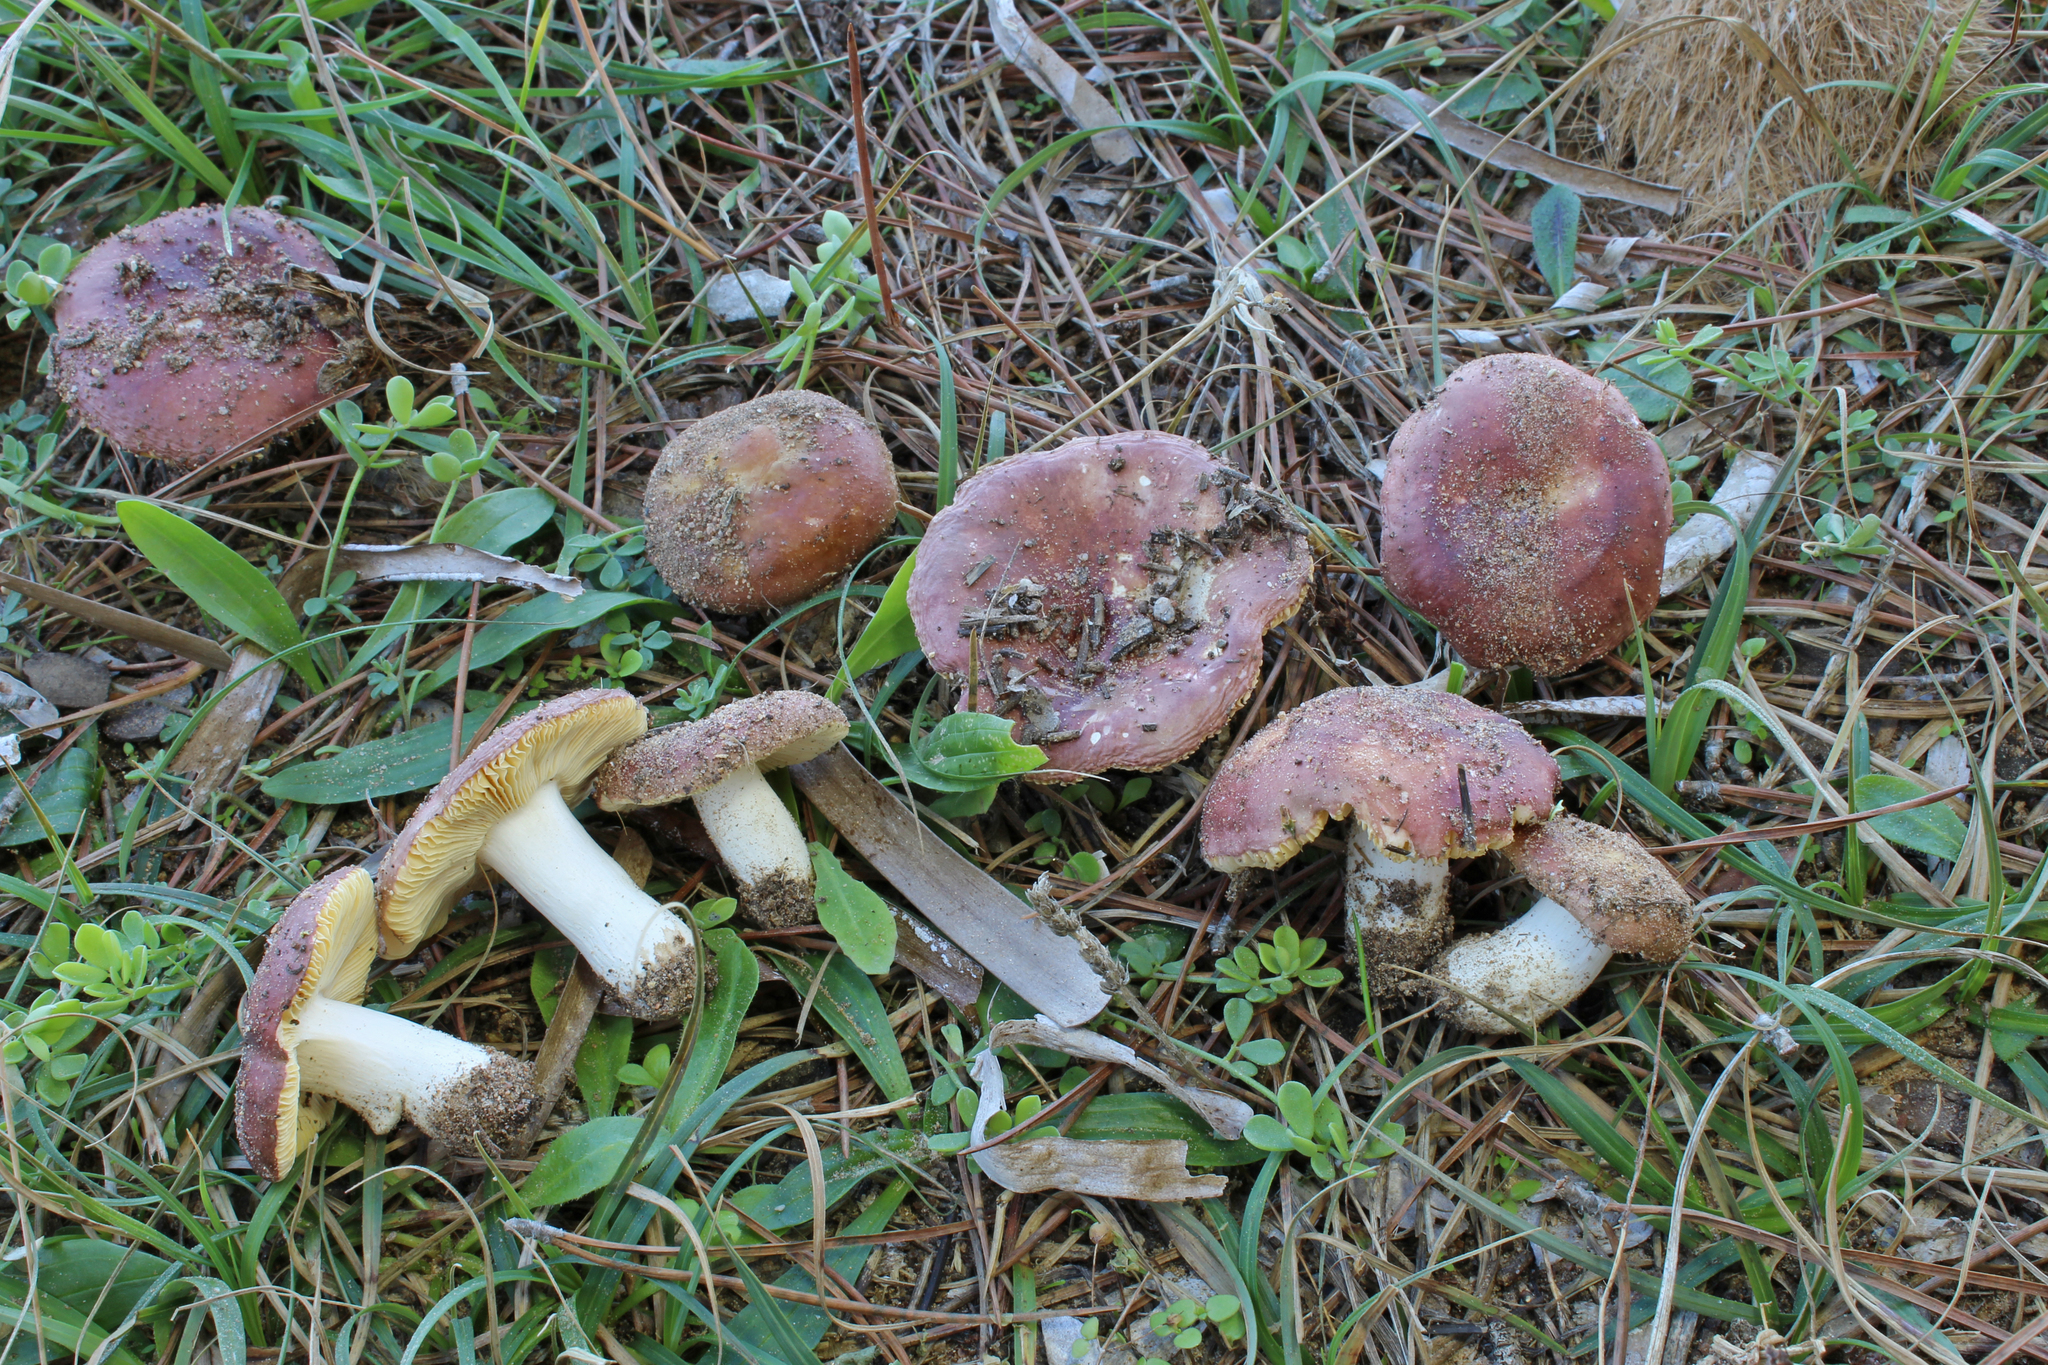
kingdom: Fungi
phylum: Basidiomycota
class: Agaricomycetes
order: Russulales
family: Russulaceae
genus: Russula
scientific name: Russula cessans
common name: Tardy brittlegill
